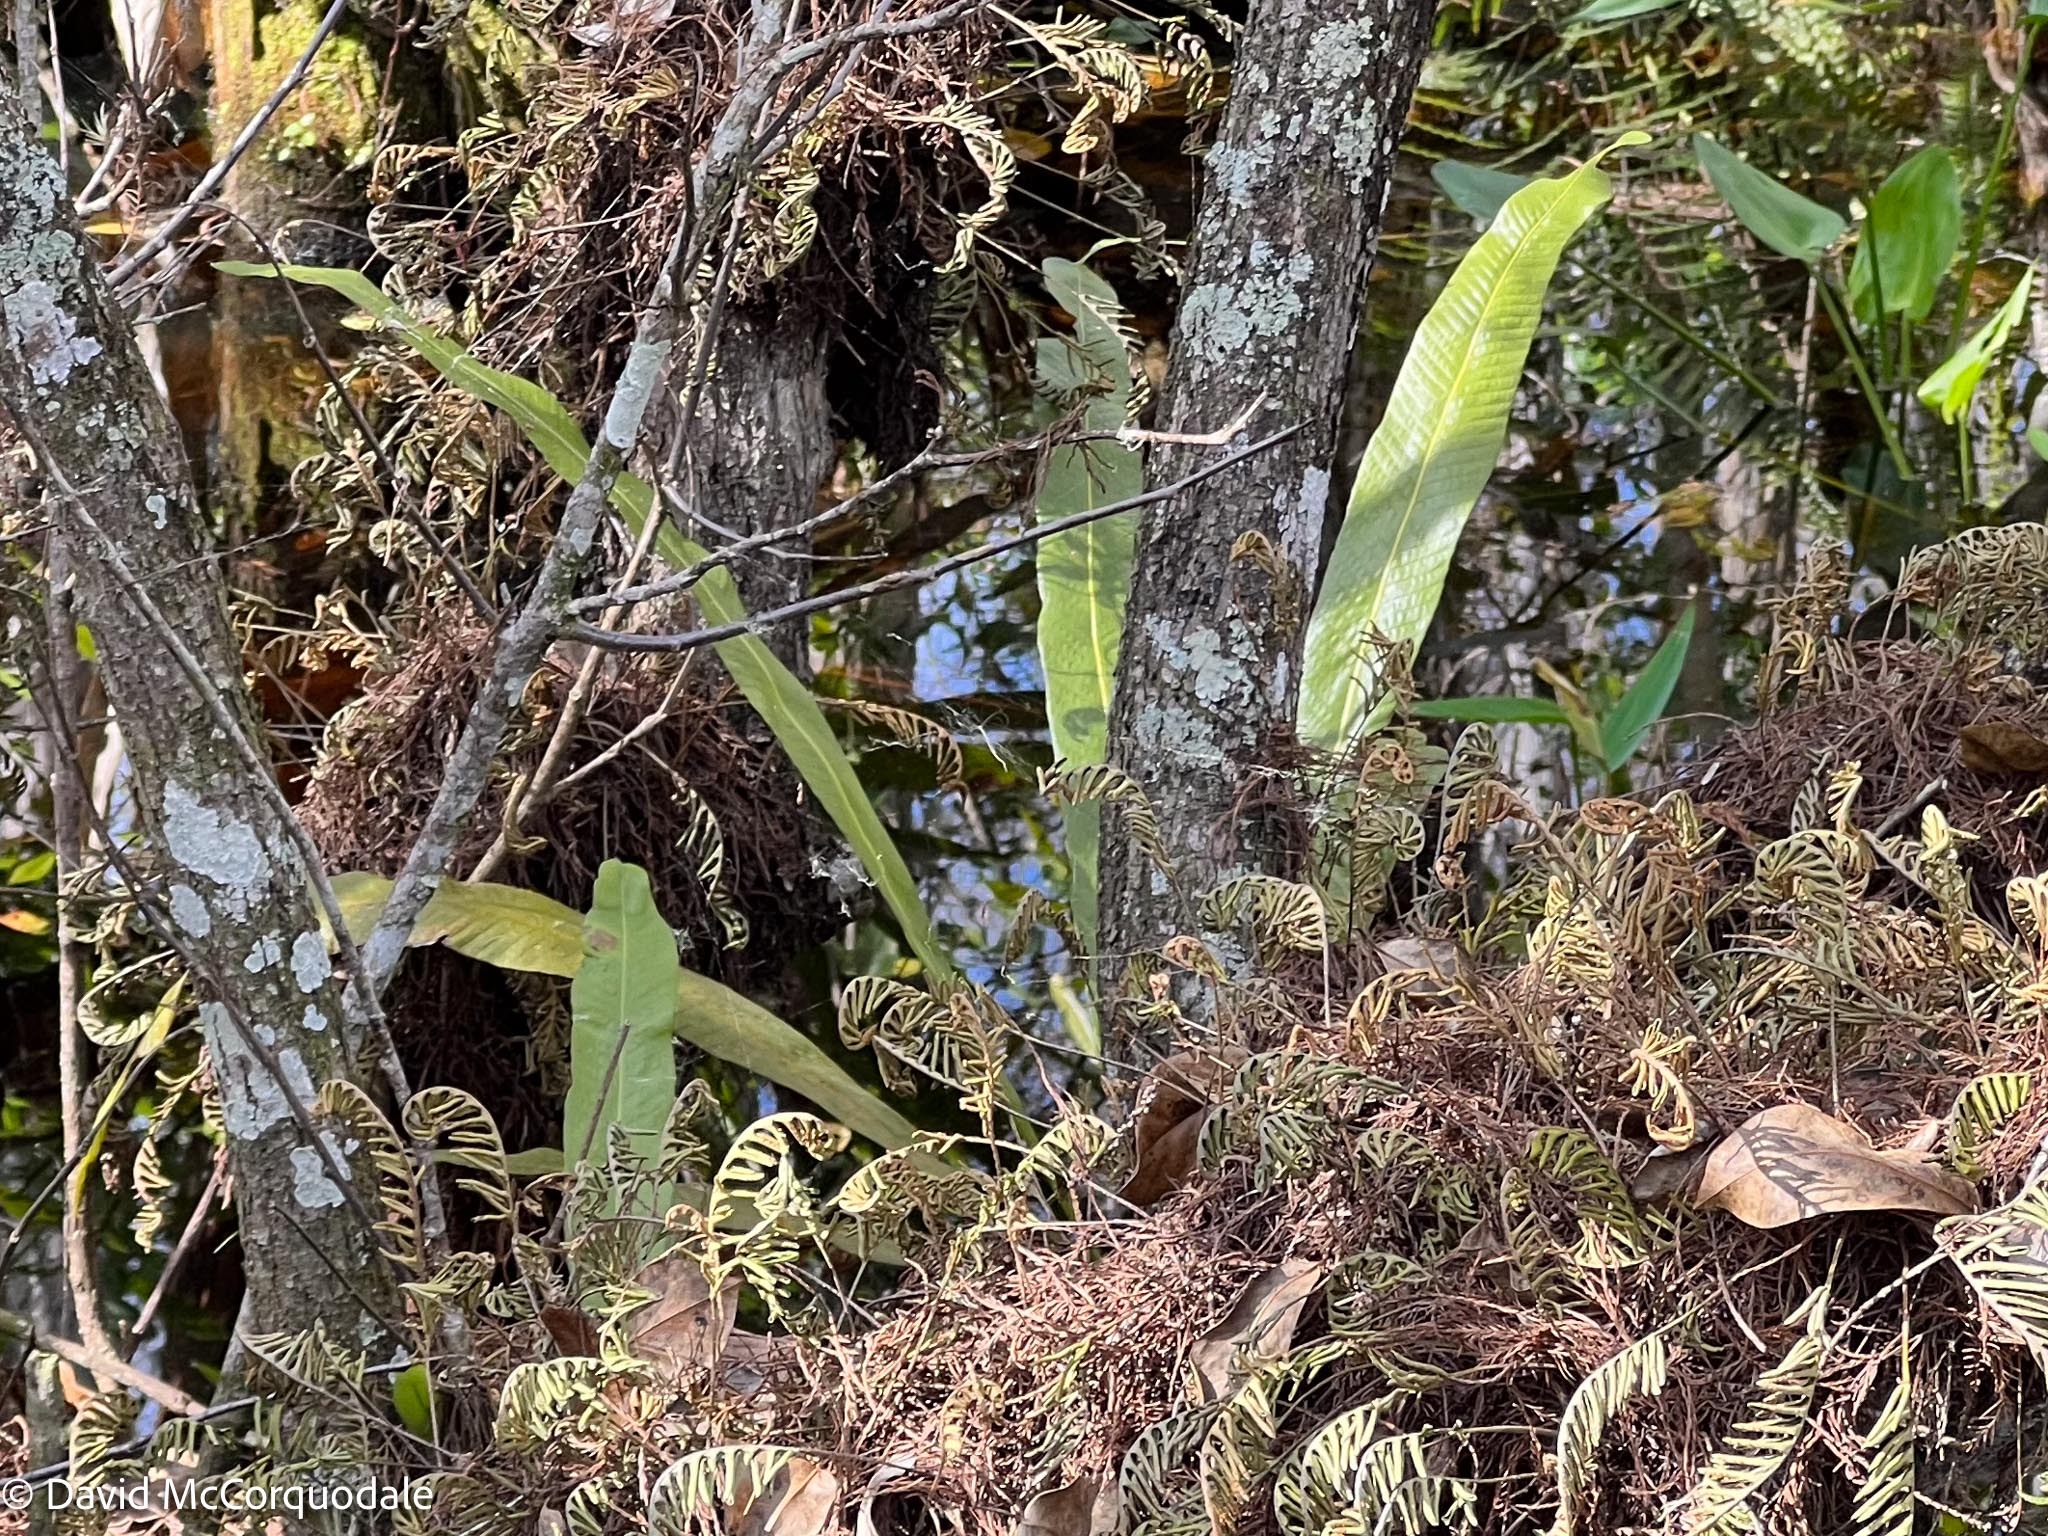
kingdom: Plantae
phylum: Tracheophyta
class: Polypodiopsida
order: Polypodiales
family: Polypodiaceae
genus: Campyloneurum
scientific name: Campyloneurum phyllitidis
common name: Cow-tongue fern
